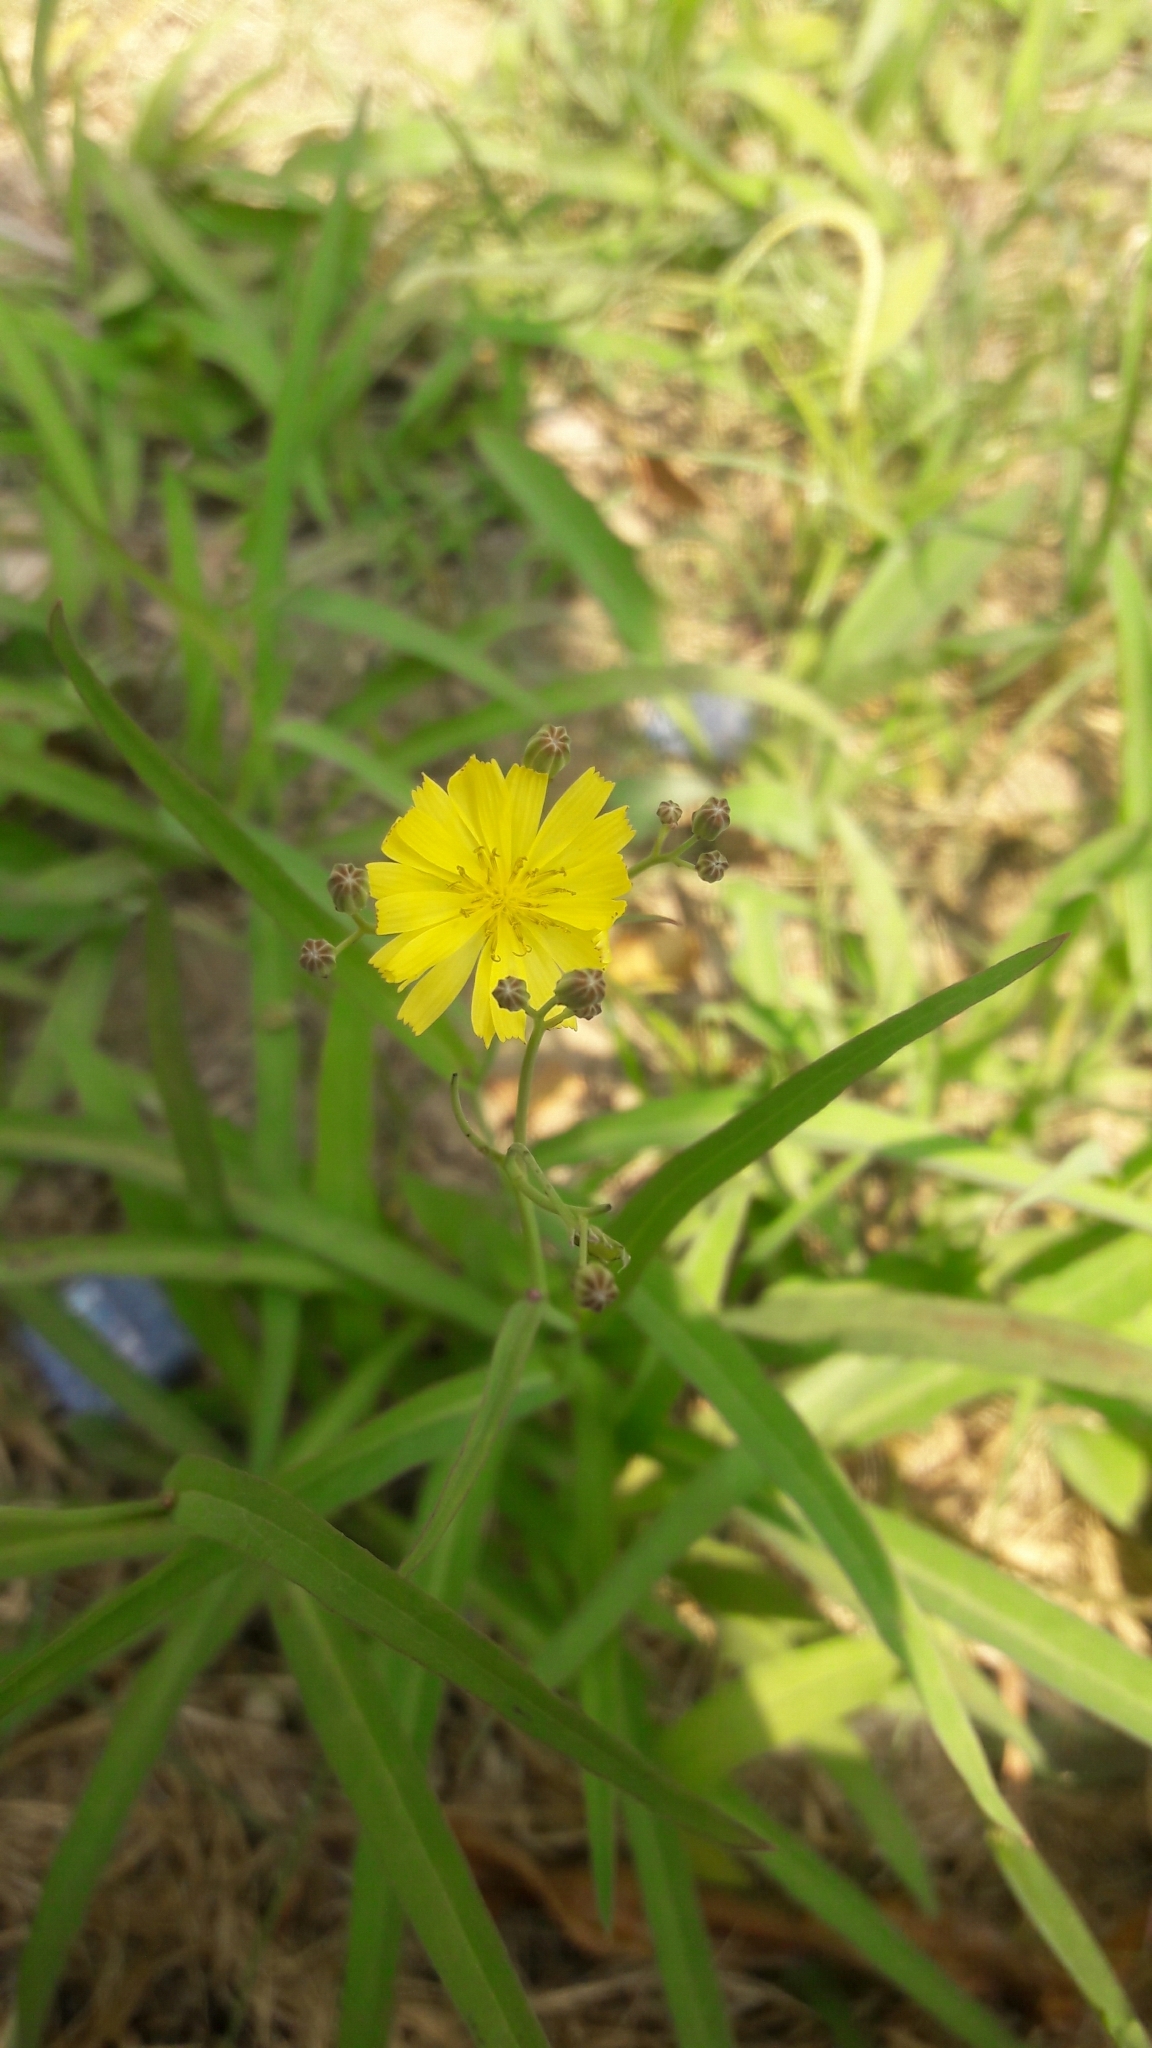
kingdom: Plantae
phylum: Tracheophyta
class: Magnoliopsida
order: Asterales
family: Asteraceae
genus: Ixeris
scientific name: Ixeris chinensis
